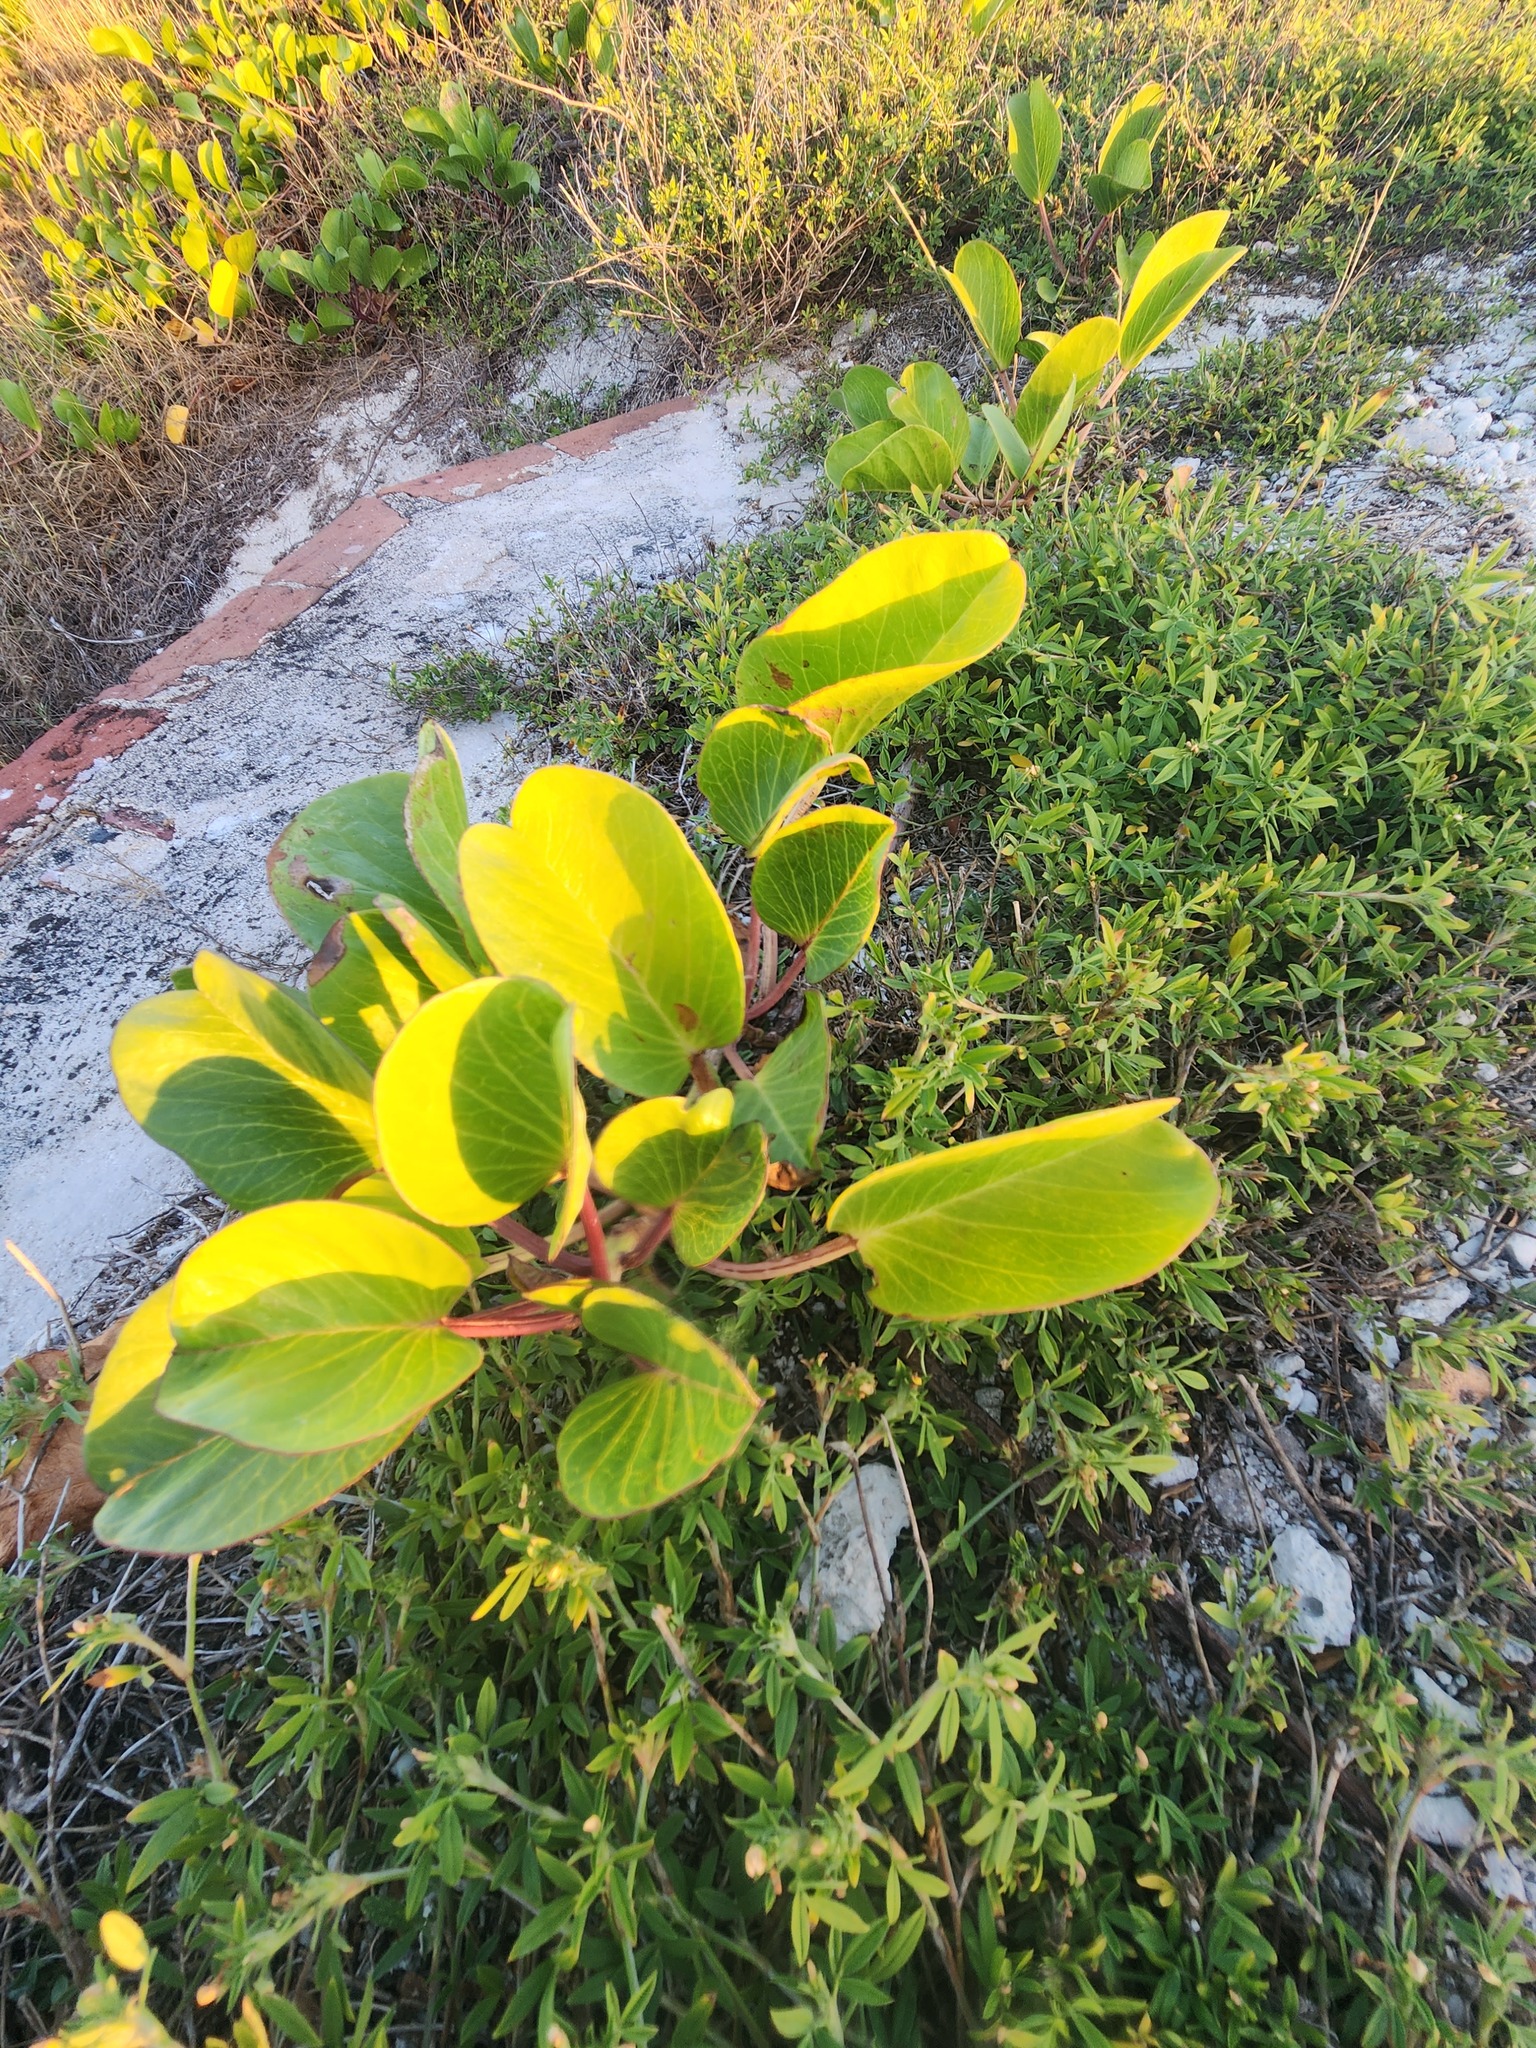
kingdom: Plantae
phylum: Tracheophyta
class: Magnoliopsida
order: Solanales
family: Convolvulaceae
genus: Ipomoea
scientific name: Ipomoea pes-caprae
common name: Beach morning glory
